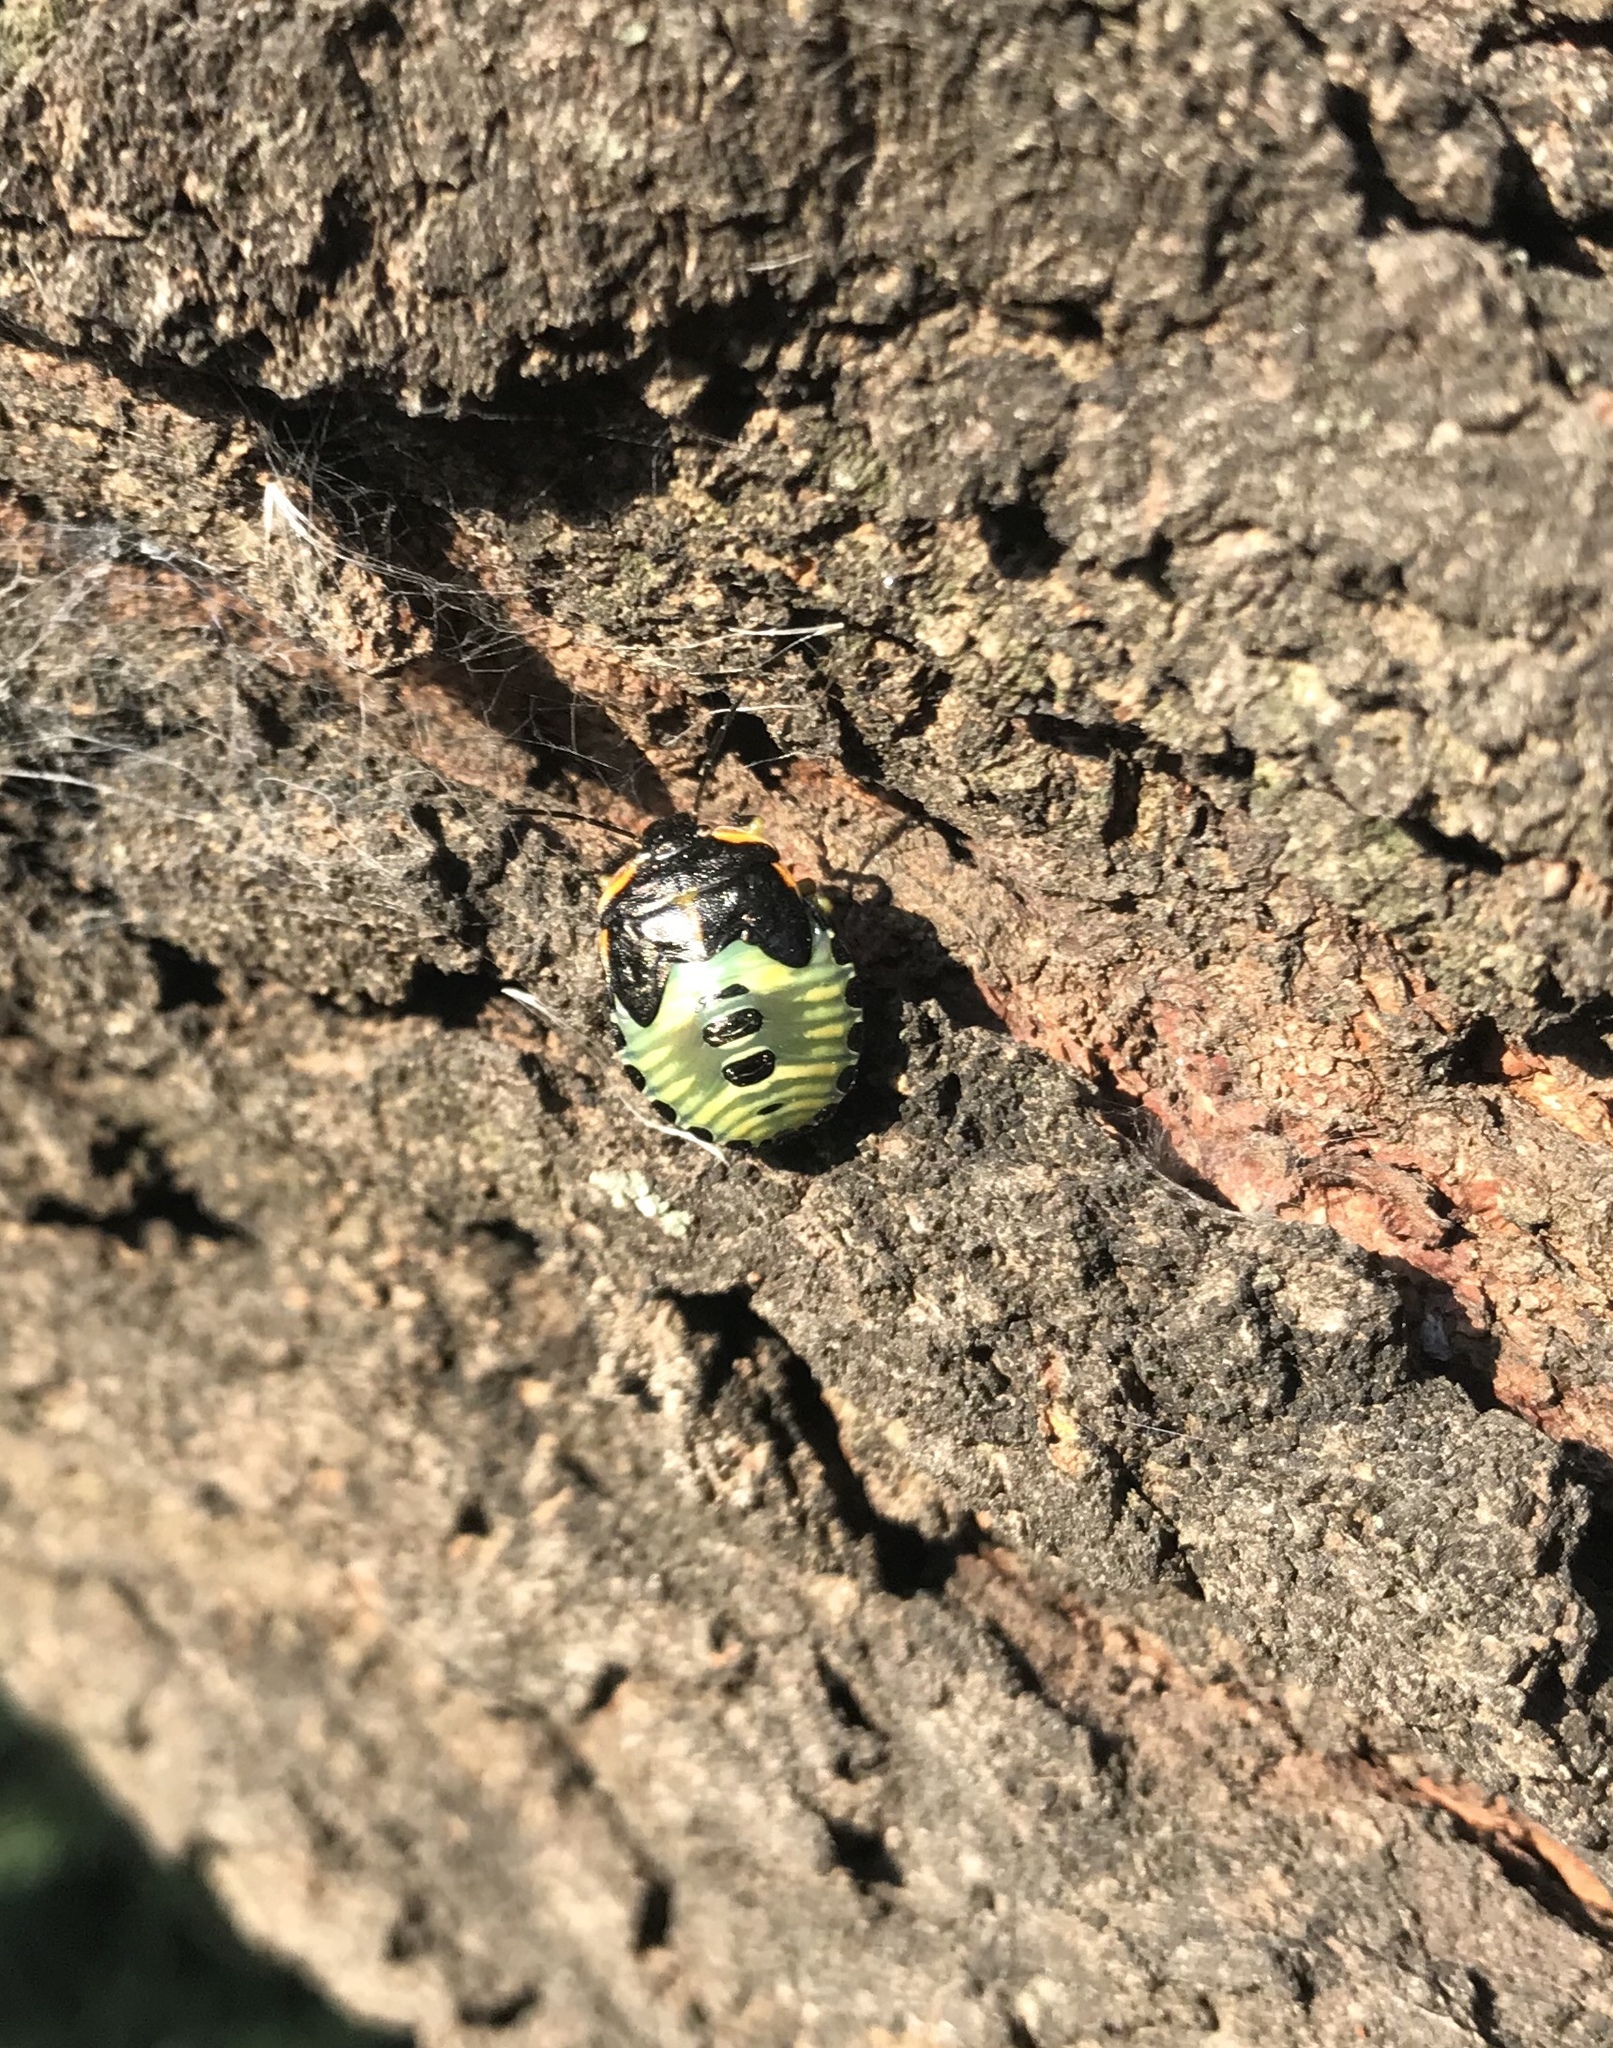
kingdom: Animalia
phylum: Arthropoda
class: Insecta
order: Hemiptera
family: Pentatomidae
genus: Chinavia
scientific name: Chinavia hilaris
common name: Green stink bug
